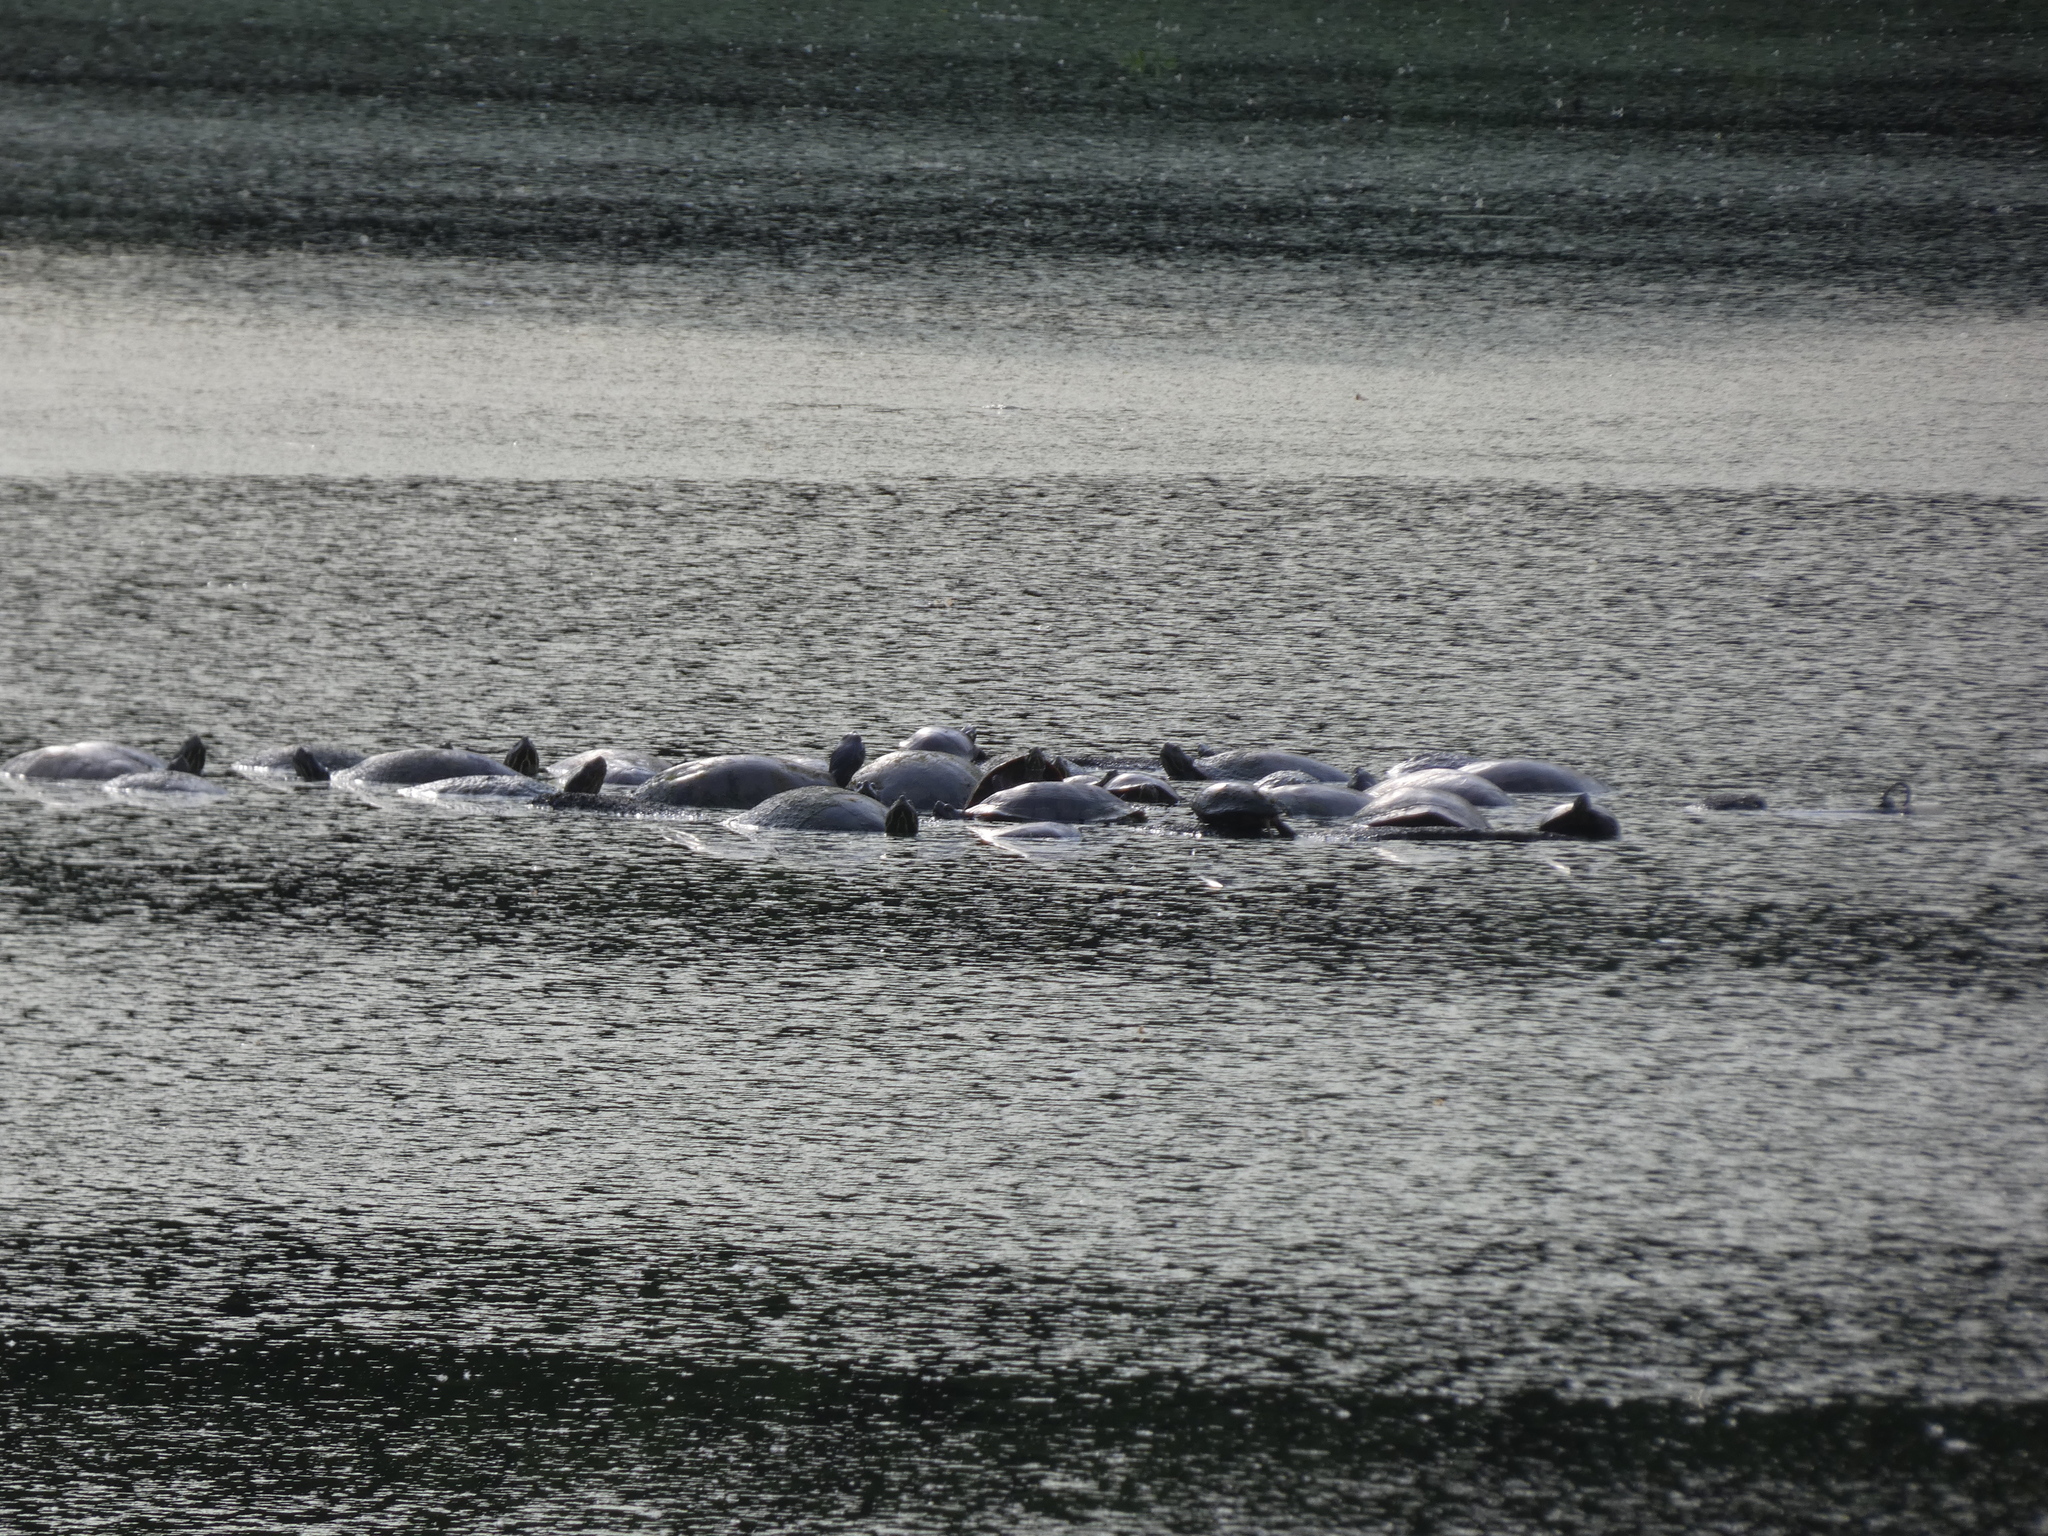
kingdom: Animalia
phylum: Chordata
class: Testudines
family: Emydidae
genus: Pseudemys
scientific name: Pseudemys rubriventris
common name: American red-bellied turtle
